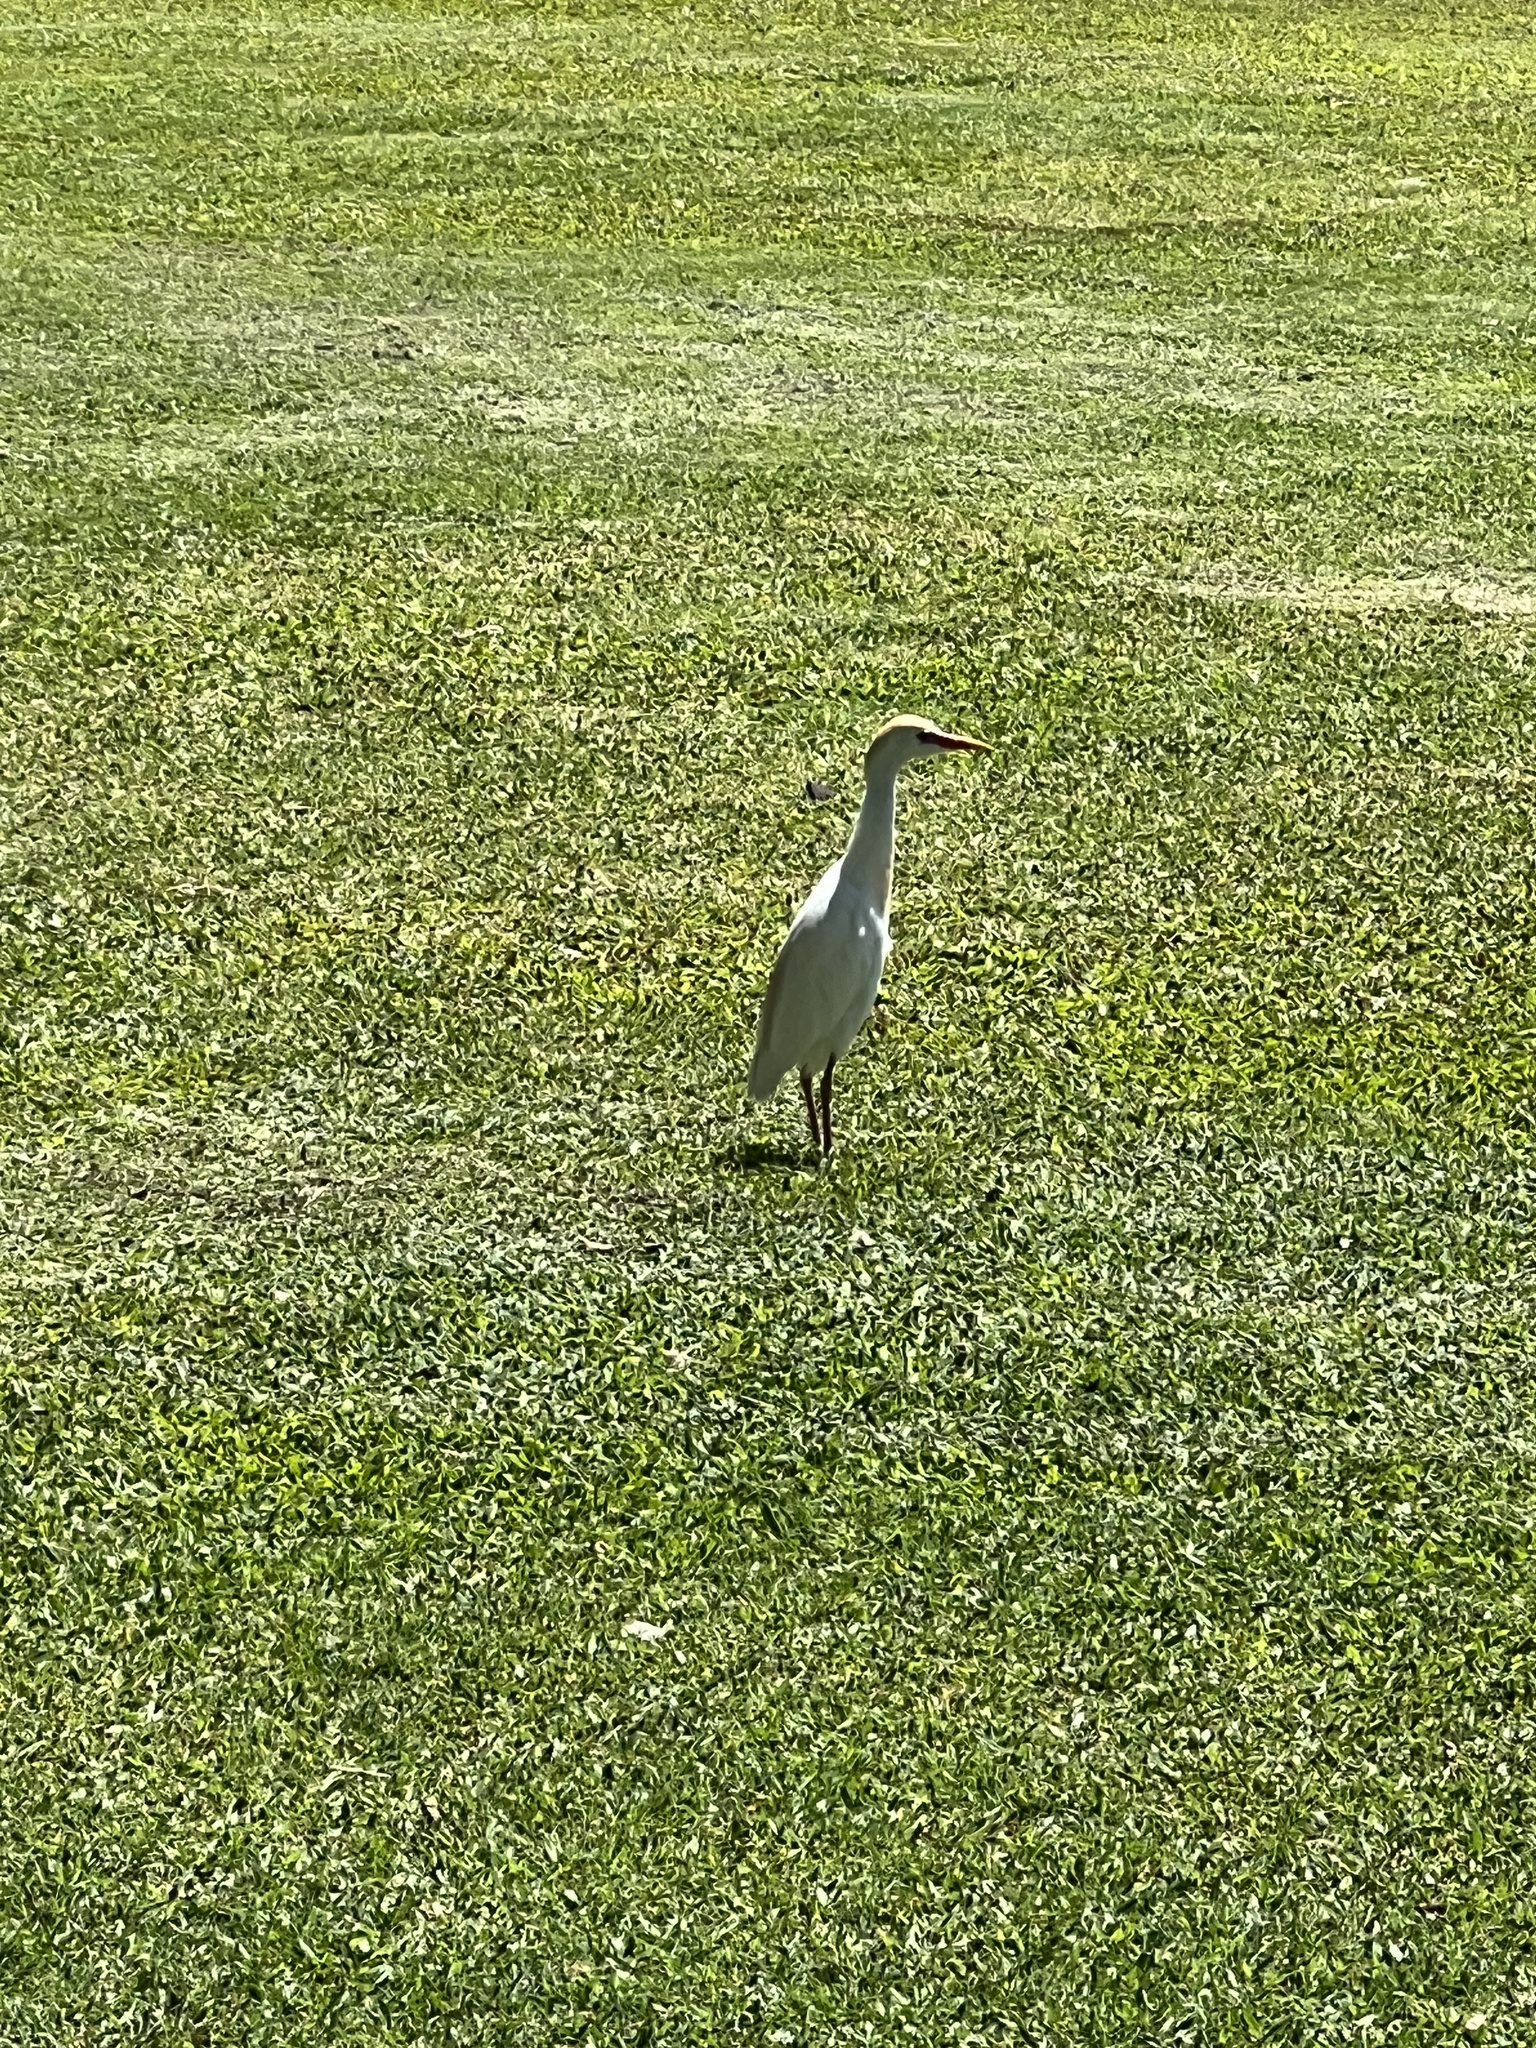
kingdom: Animalia
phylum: Chordata
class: Aves
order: Pelecaniformes
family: Ardeidae
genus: Bubulcus
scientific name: Bubulcus ibis
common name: Cattle egret
